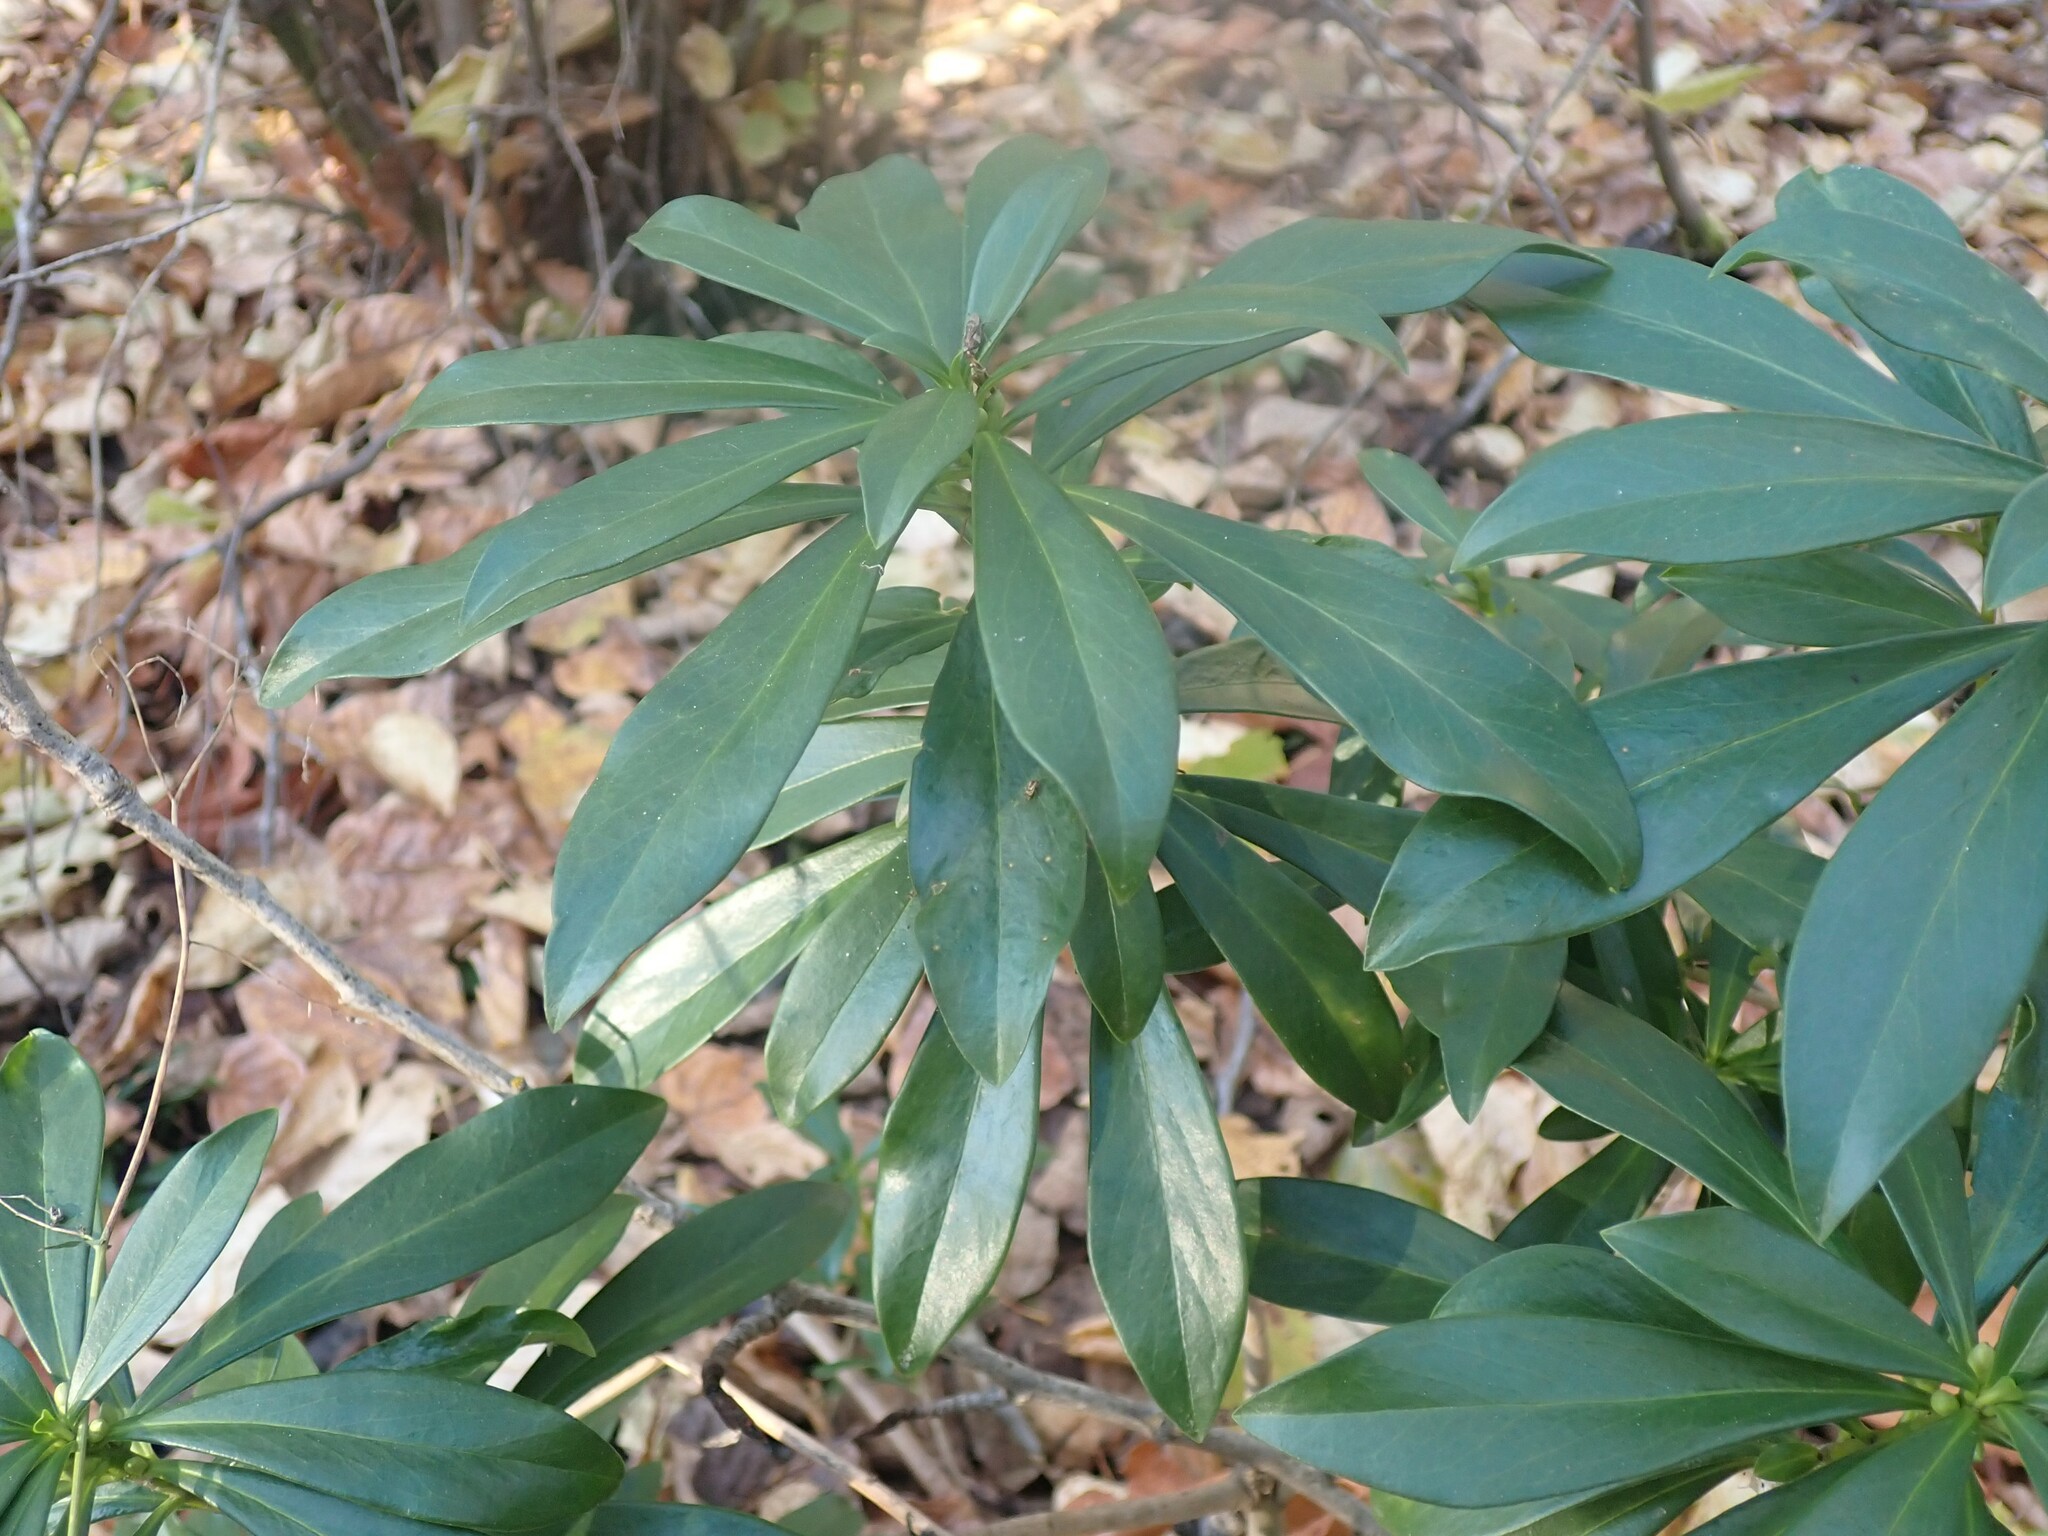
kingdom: Plantae
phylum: Tracheophyta
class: Magnoliopsida
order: Malvales
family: Thymelaeaceae
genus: Daphne
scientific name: Daphne laureola
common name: Spurge-laurel
